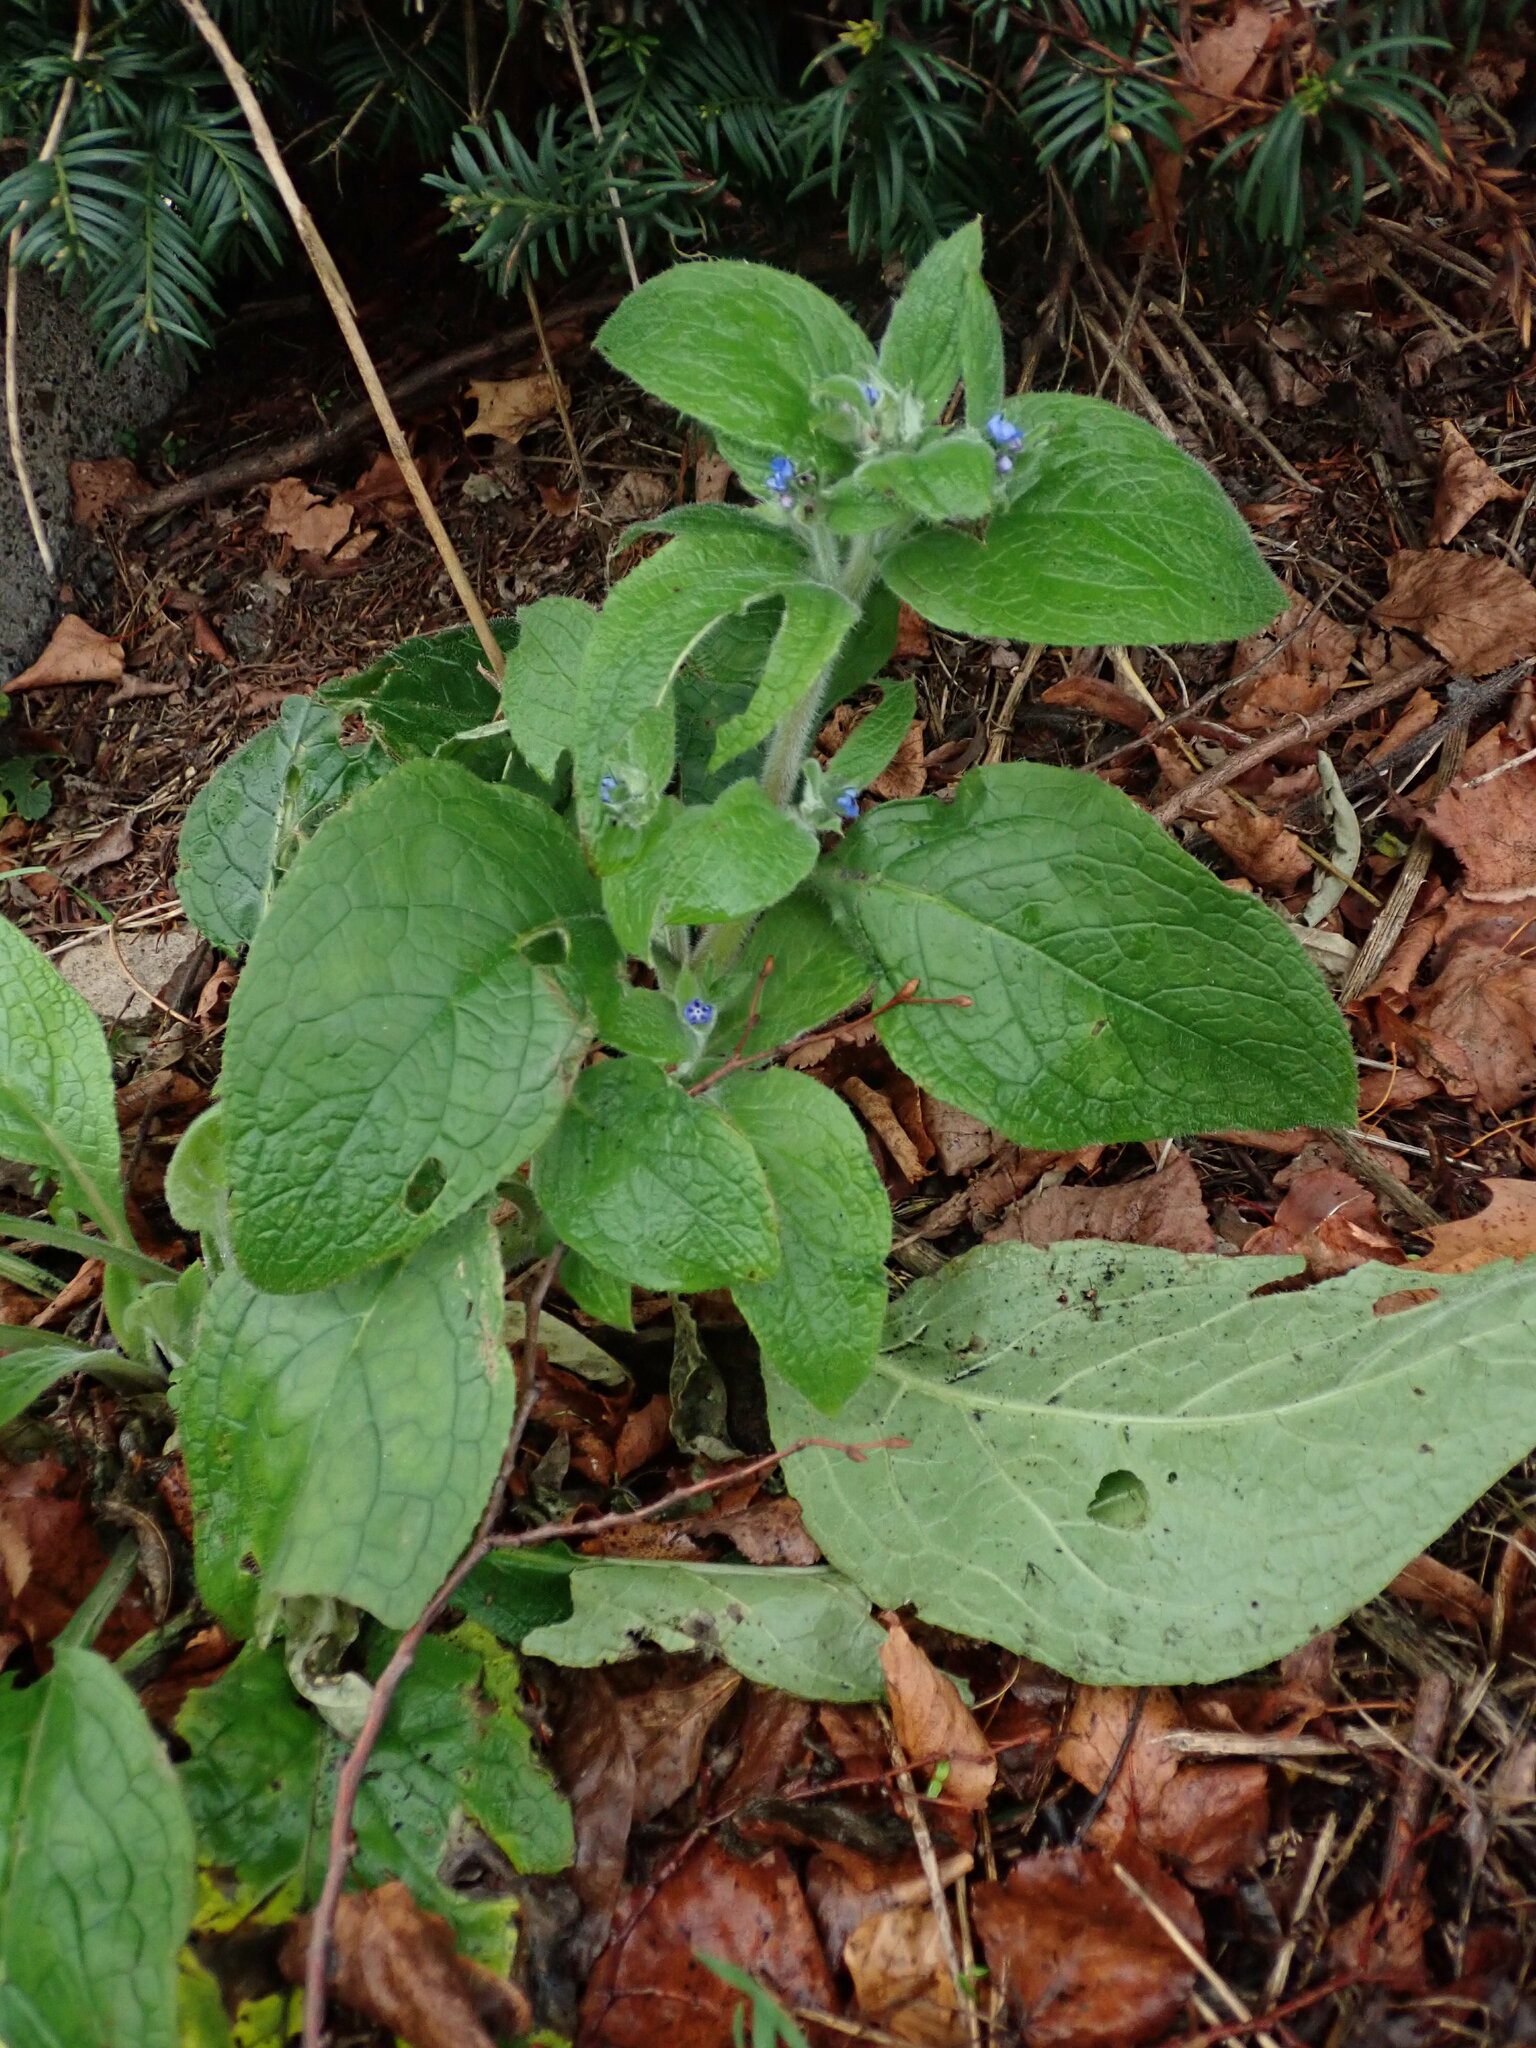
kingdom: Plantae
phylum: Tracheophyta
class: Magnoliopsida
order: Boraginales
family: Boraginaceae
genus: Pentaglottis
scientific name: Pentaglottis sempervirens
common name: Green alkanet
